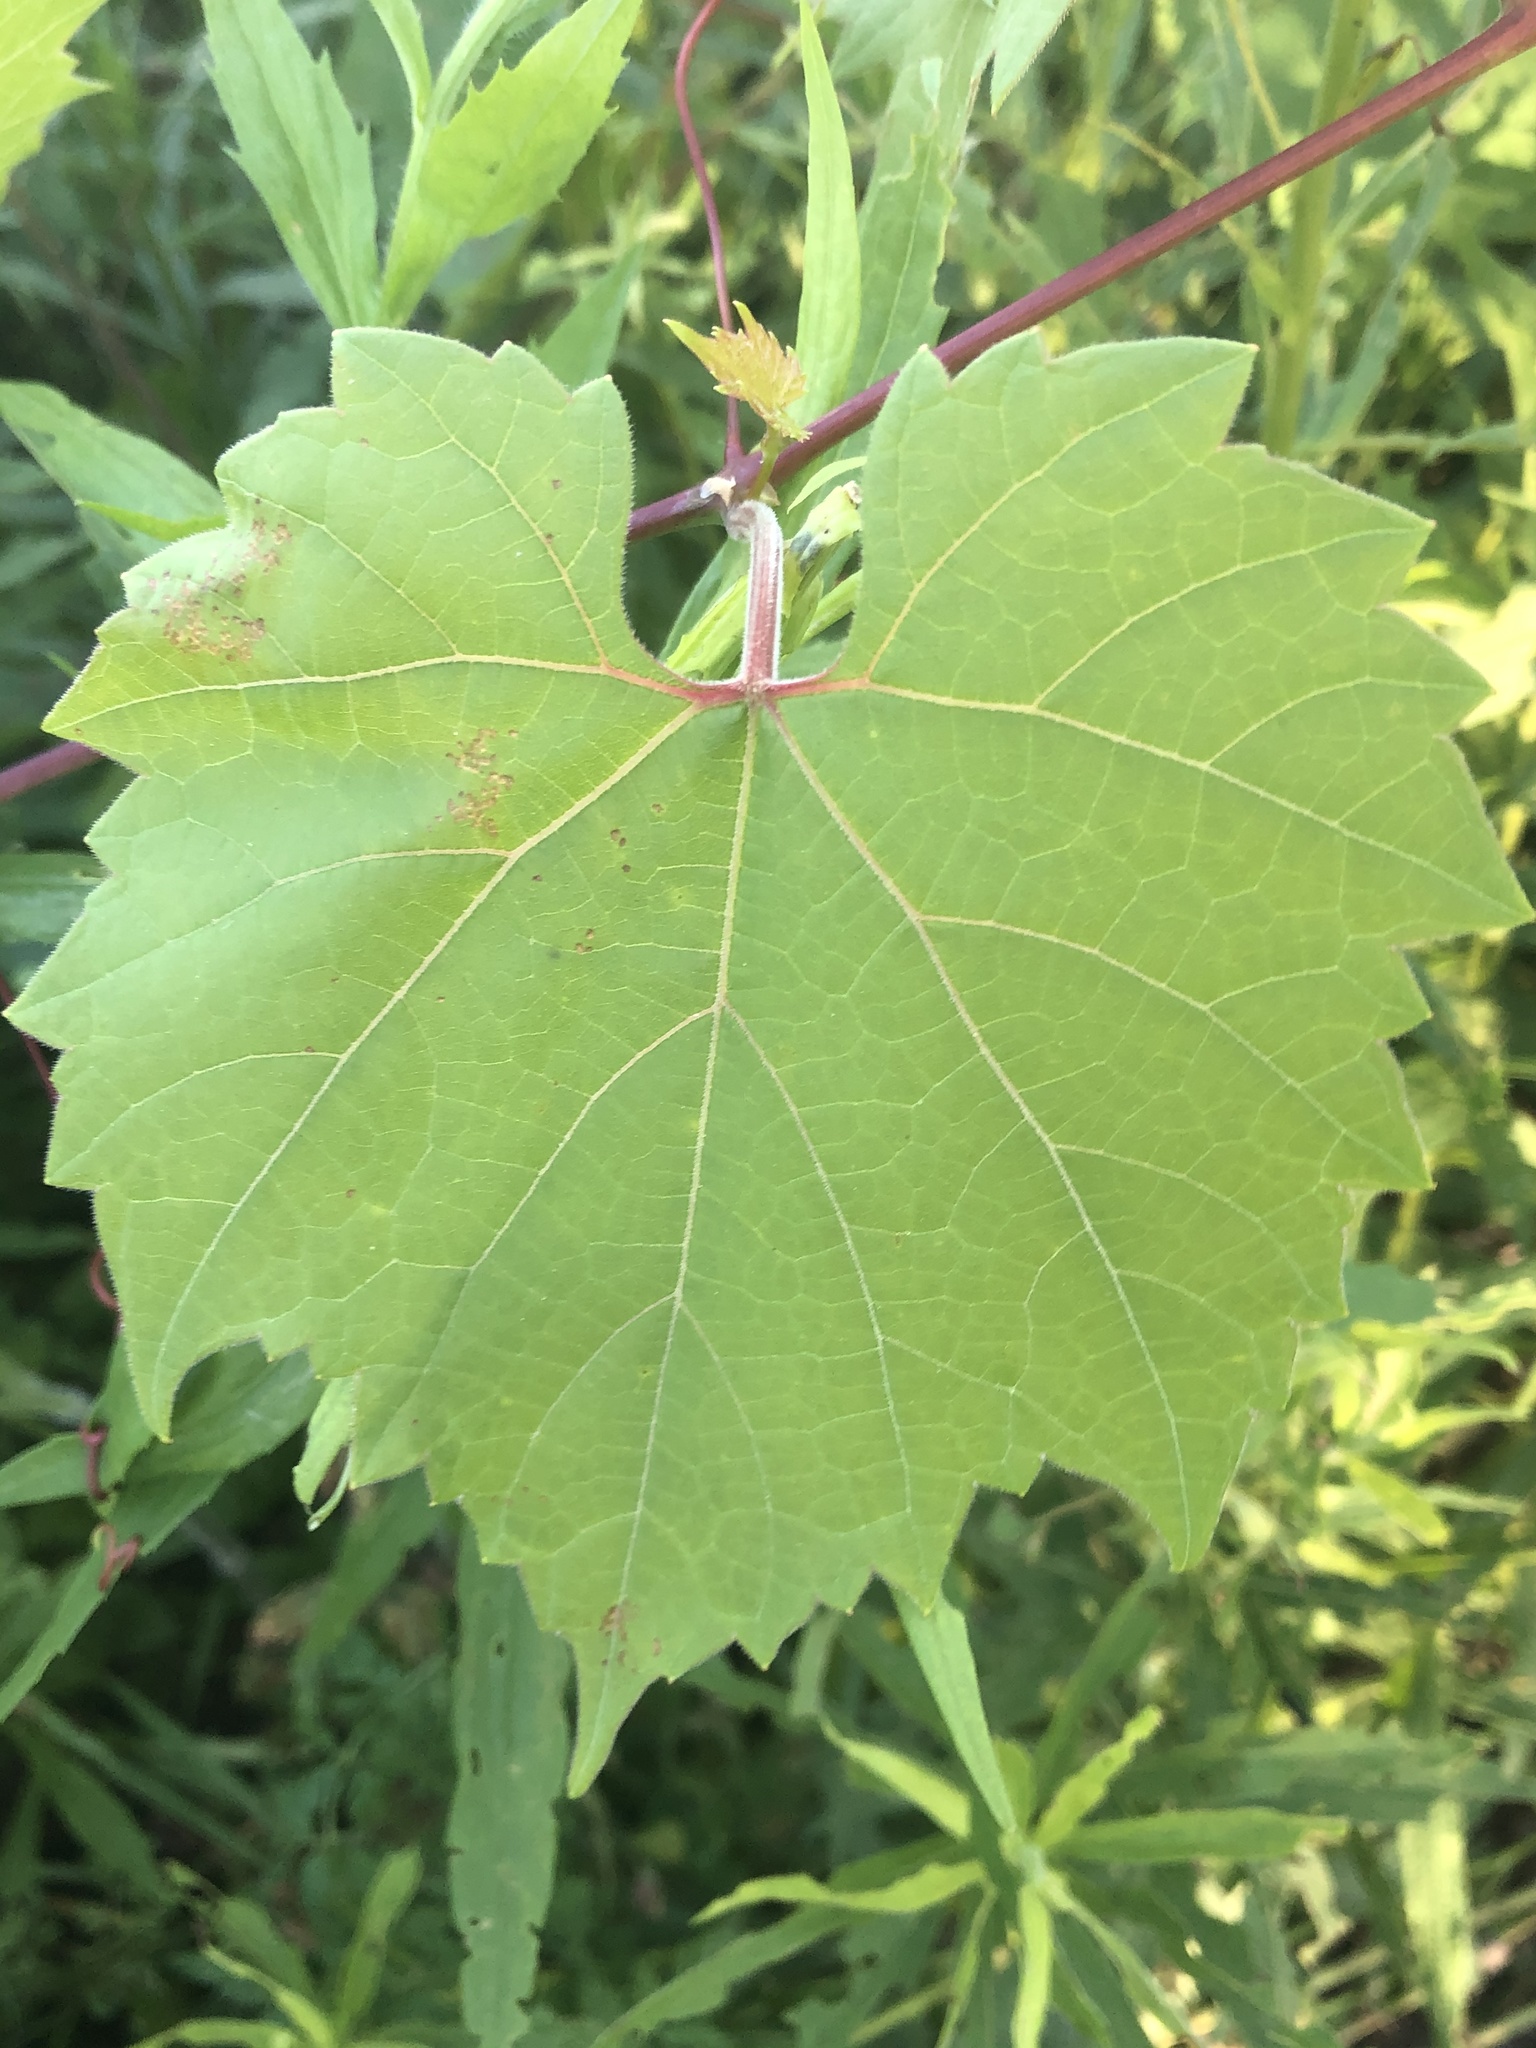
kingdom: Plantae
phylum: Tracheophyta
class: Magnoliopsida
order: Vitales
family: Vitaceae
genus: Vitis
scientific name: Vitis riparia
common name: Frost grape
